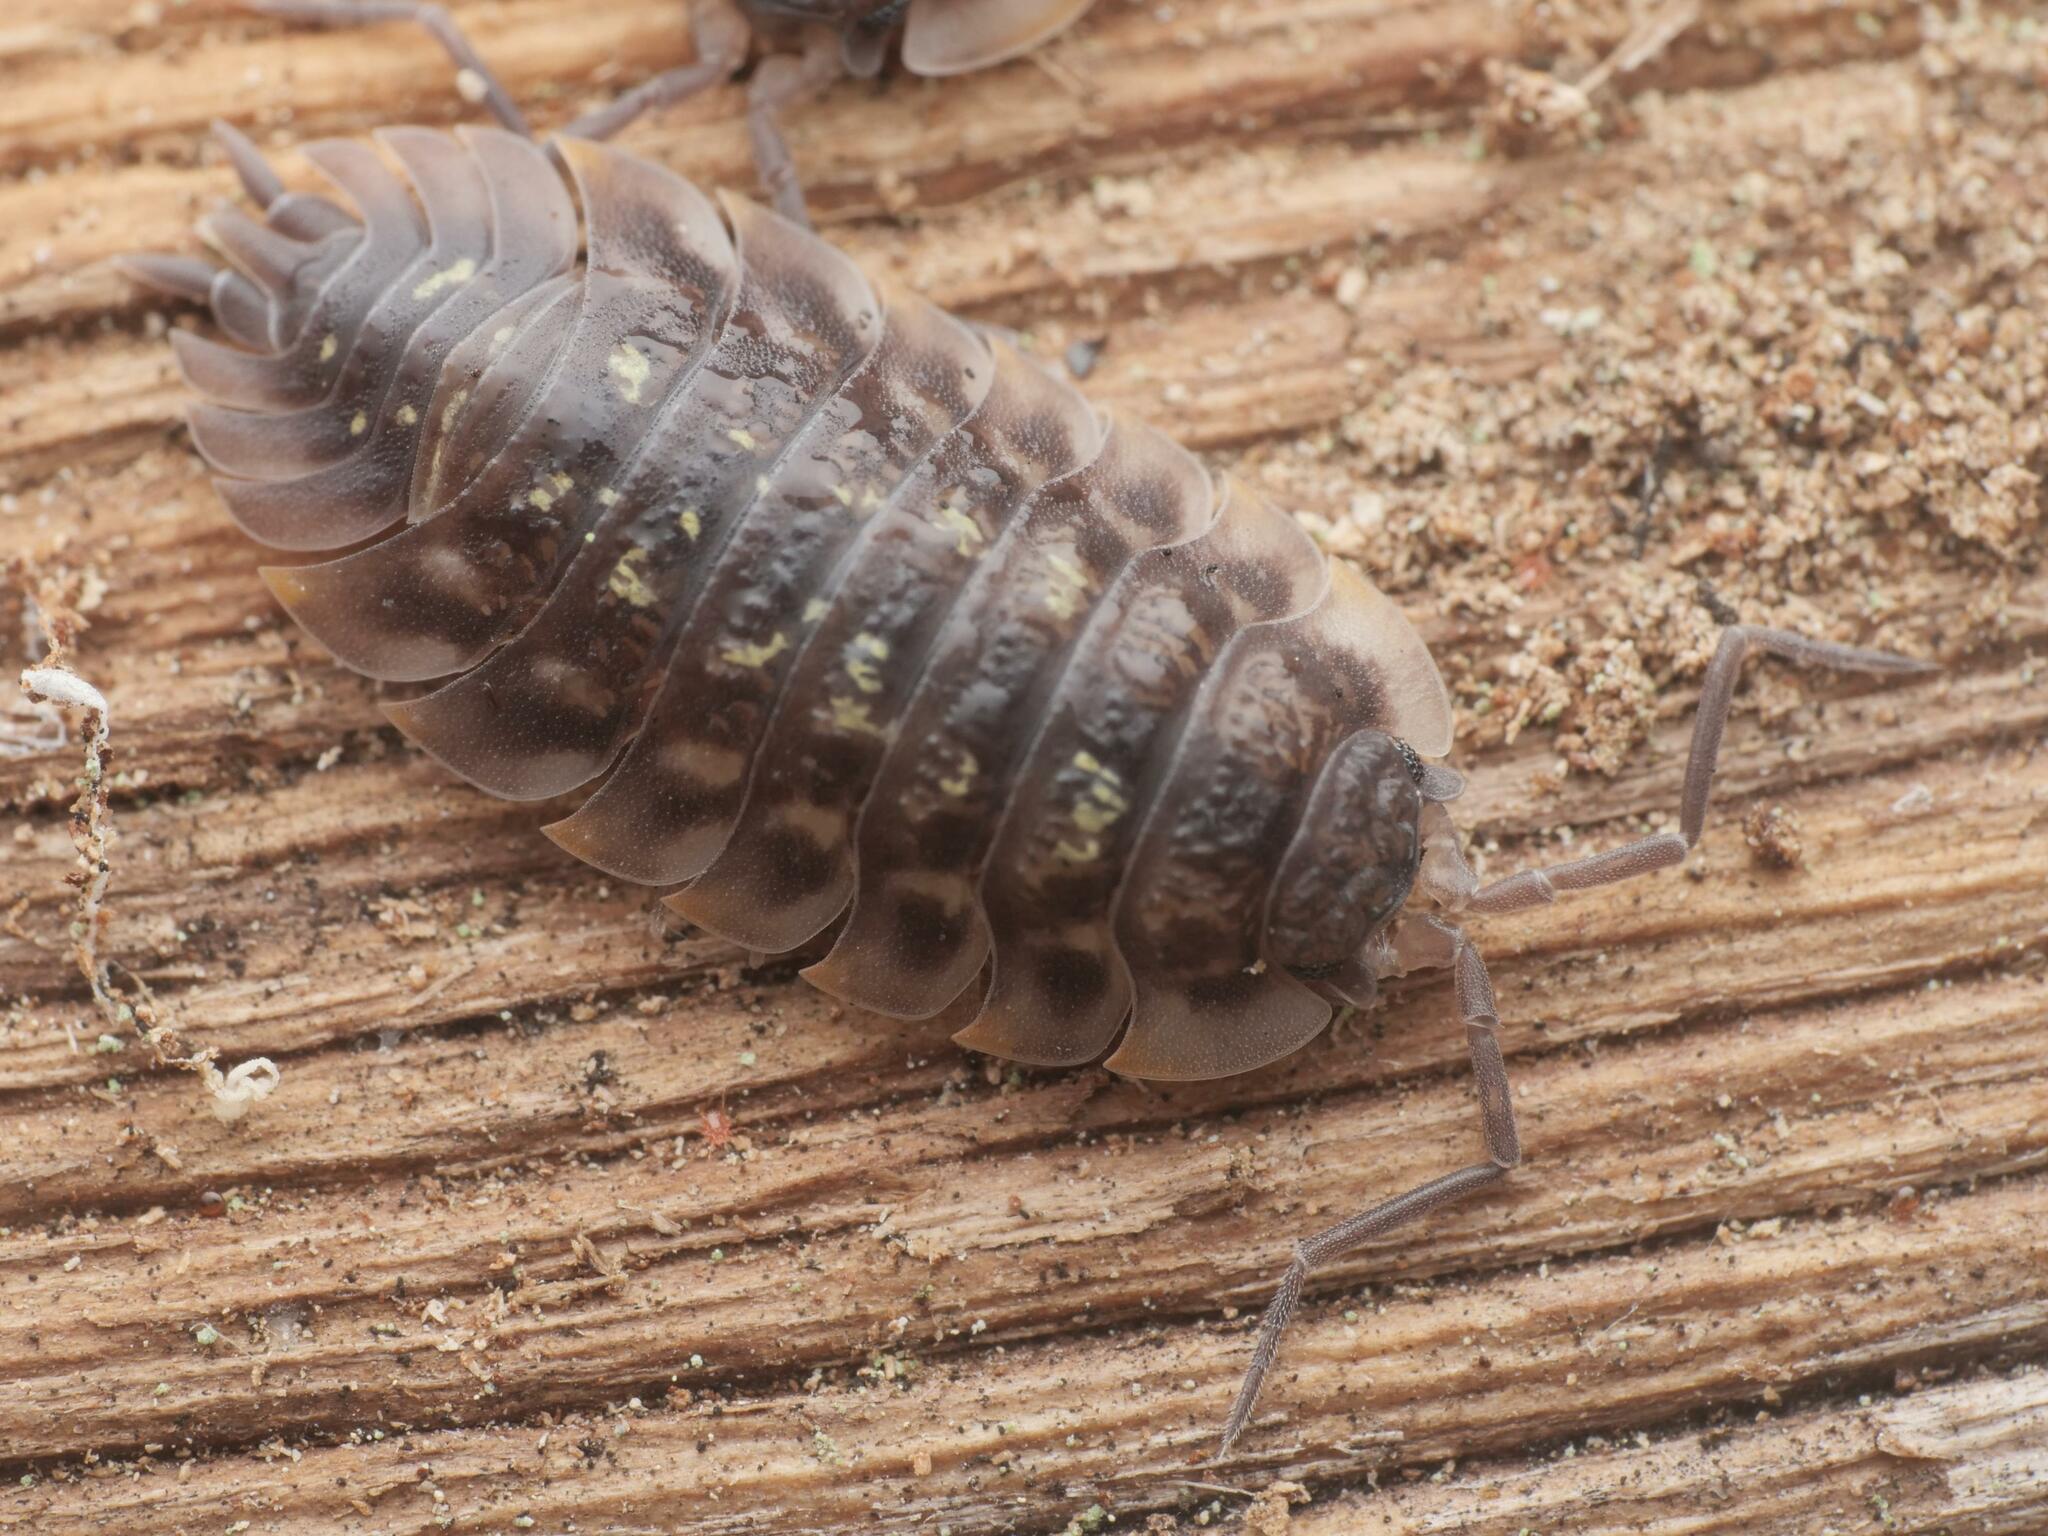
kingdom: Animalia
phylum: Arthropoda
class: Malacostraca
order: Isopoda
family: Oniscidae
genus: Oniscus
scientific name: Oniscus asellus
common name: Common shiny woodlouse
